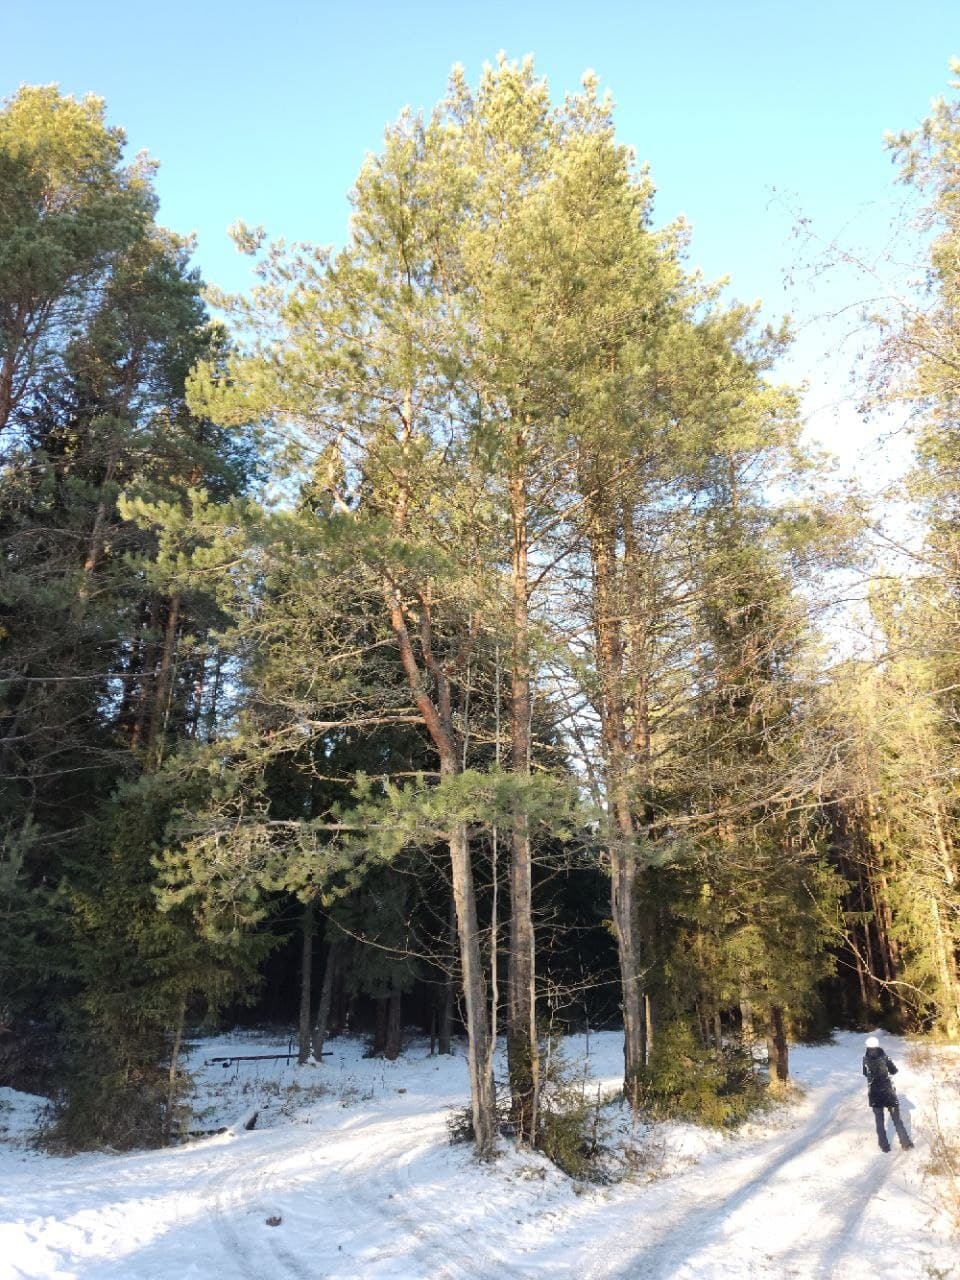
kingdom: Plantae
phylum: Tracheophyta
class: Pinopsida
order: Pinales
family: Pinaceae
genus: Pinus
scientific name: Pinus sylvestris
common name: Scots pine
